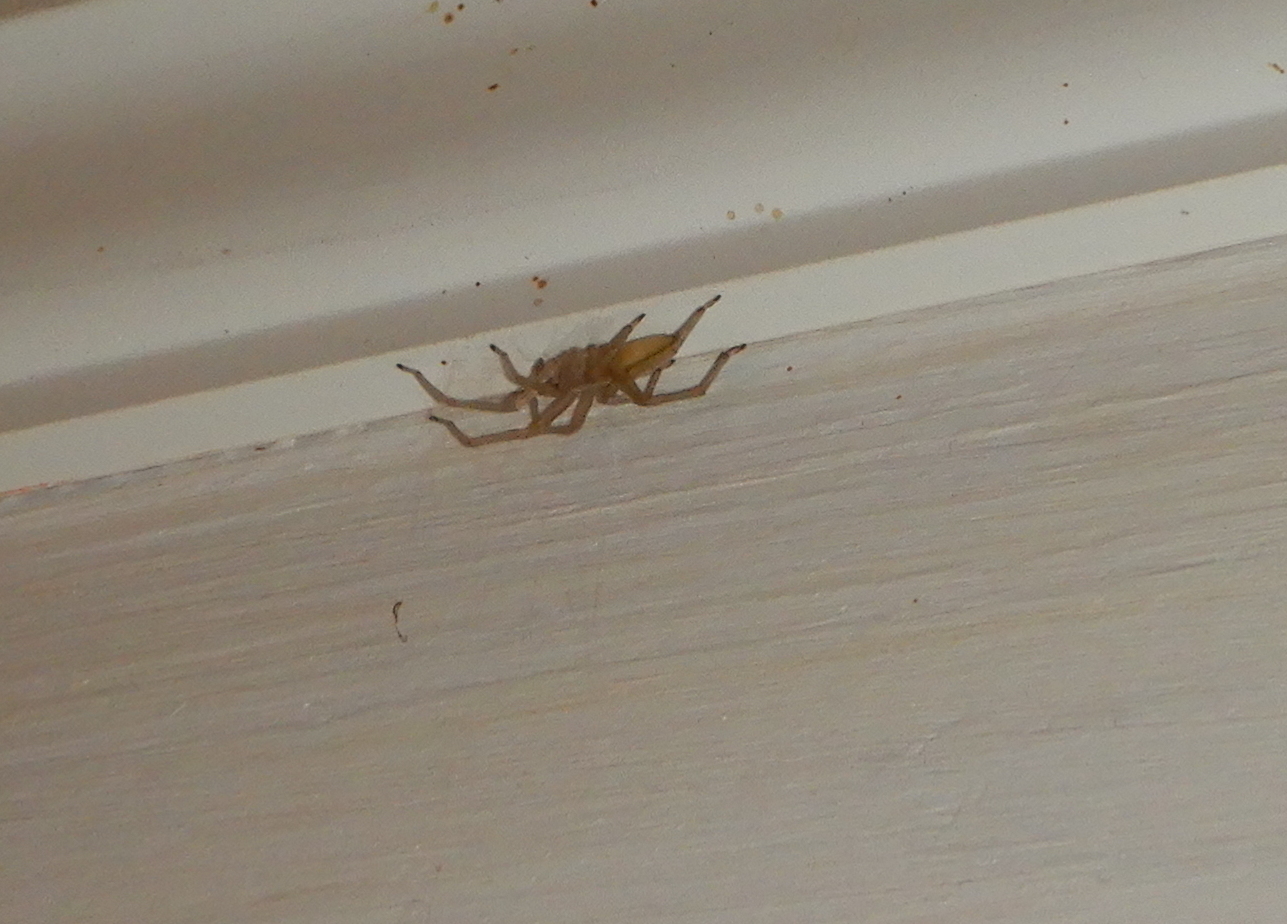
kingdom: Animalia
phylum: Arthropoda
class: Arachnida
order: Araneae
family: Cheiracanthiidae
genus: Cheiracanthium
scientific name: Cheiracanthium mildei
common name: Northern yellow sac spider
